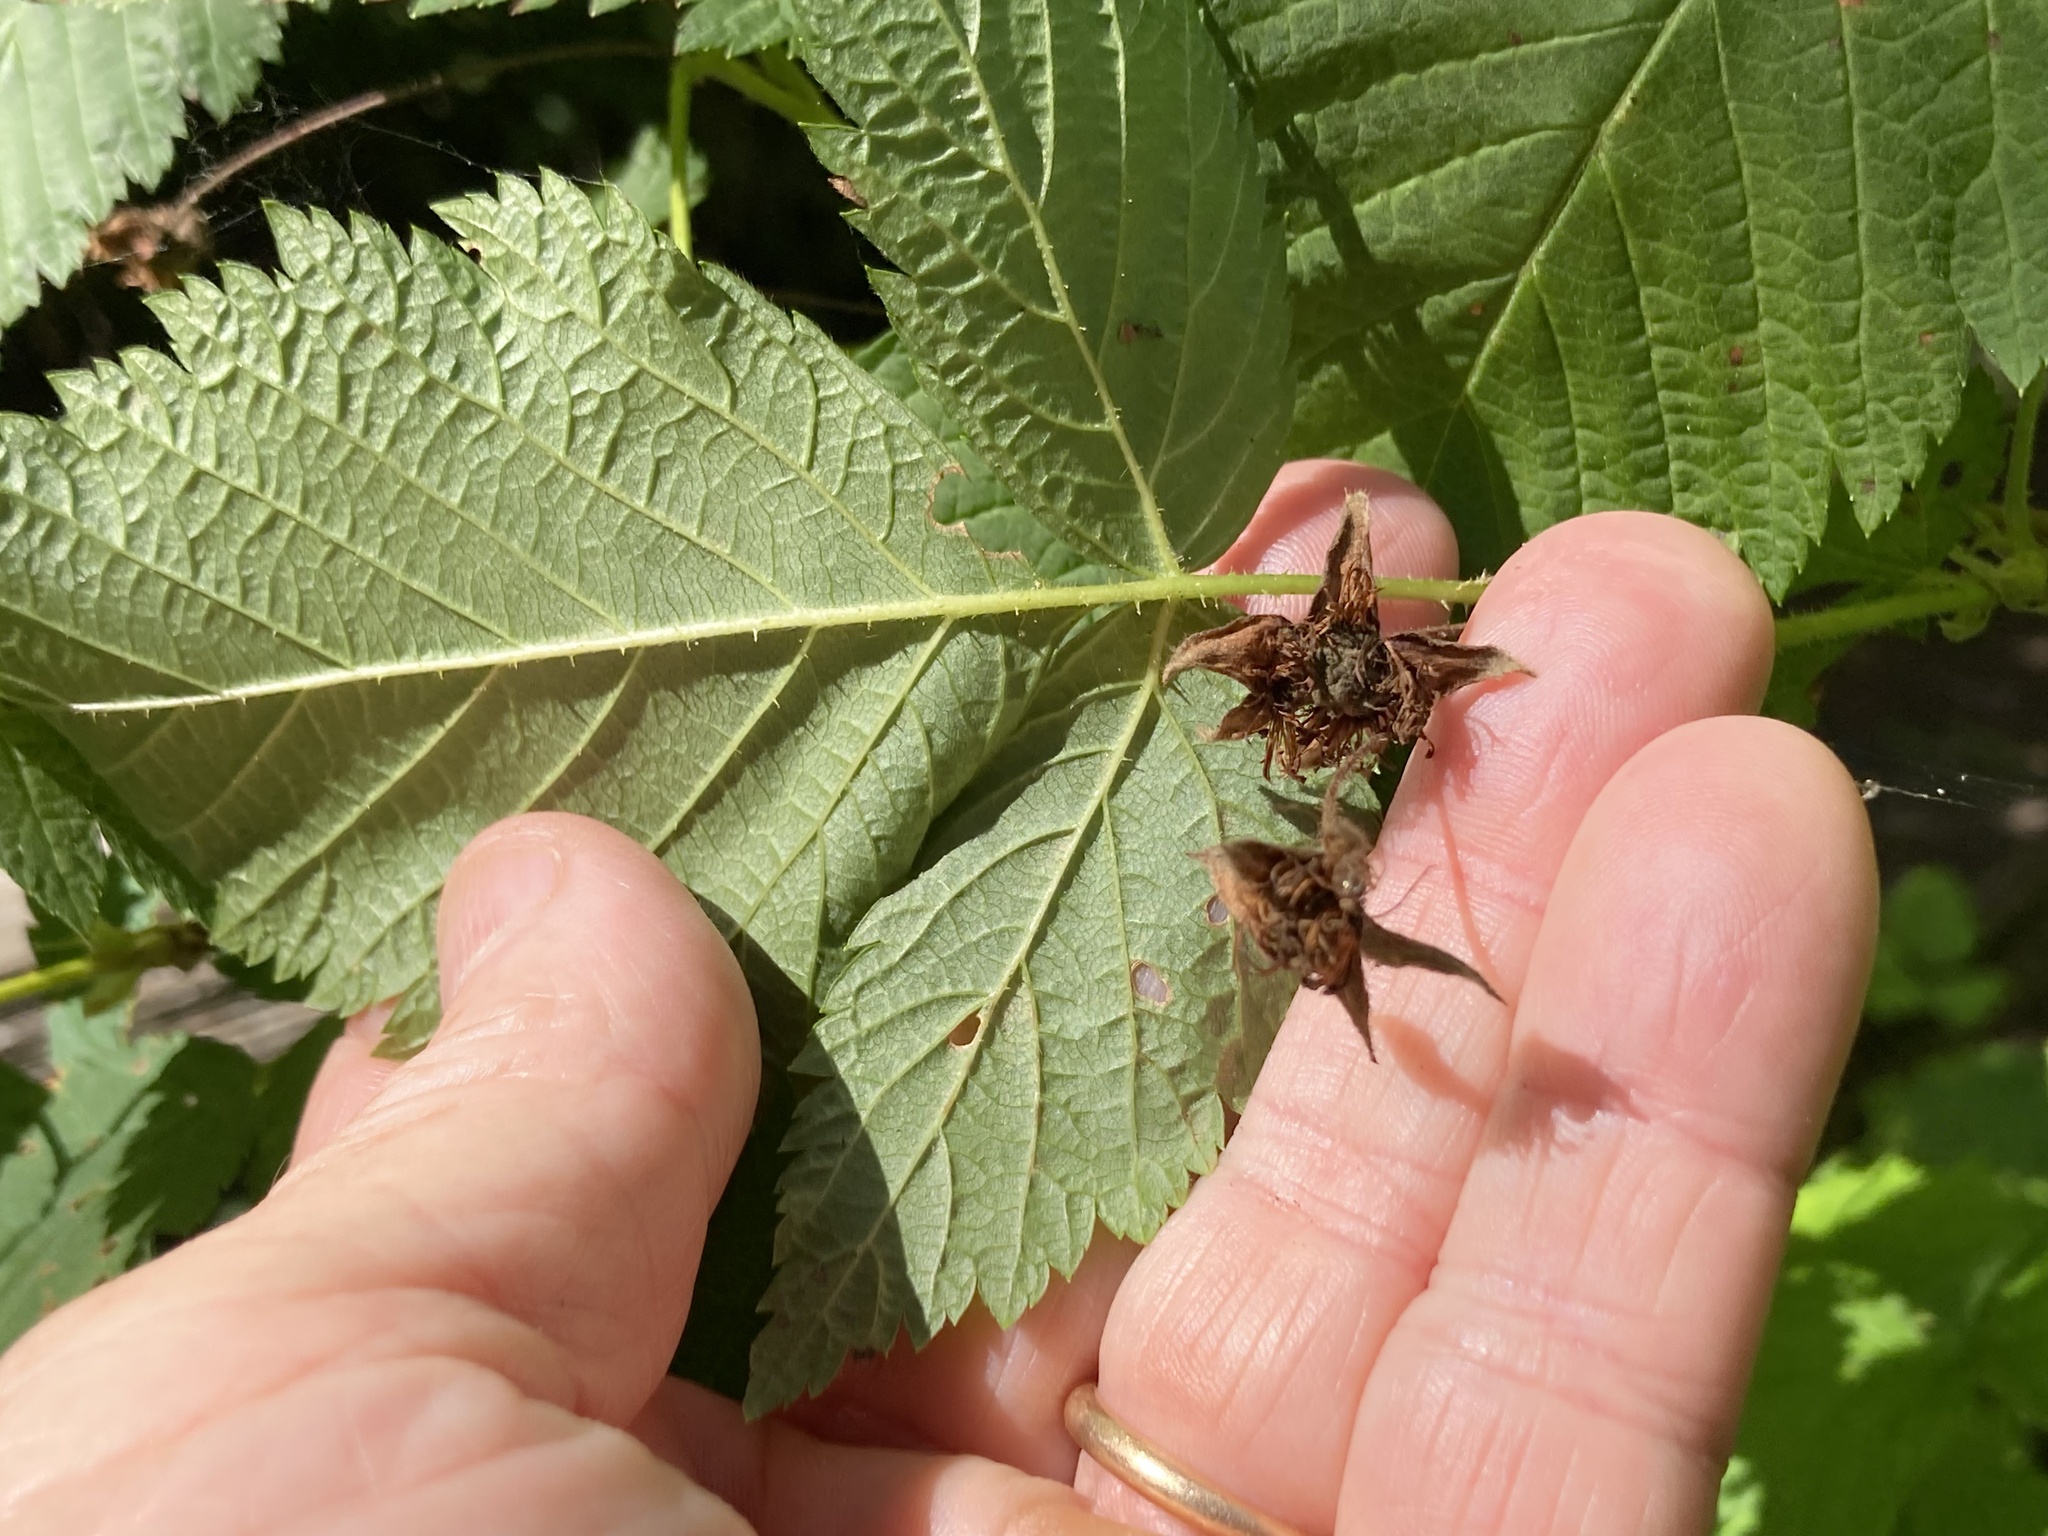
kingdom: Plantae
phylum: Tracheophyta
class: Magnoliopsida
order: Rosales
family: Rosaceae
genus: Rubus
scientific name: Rubus spectabilis
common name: Salmonberry
